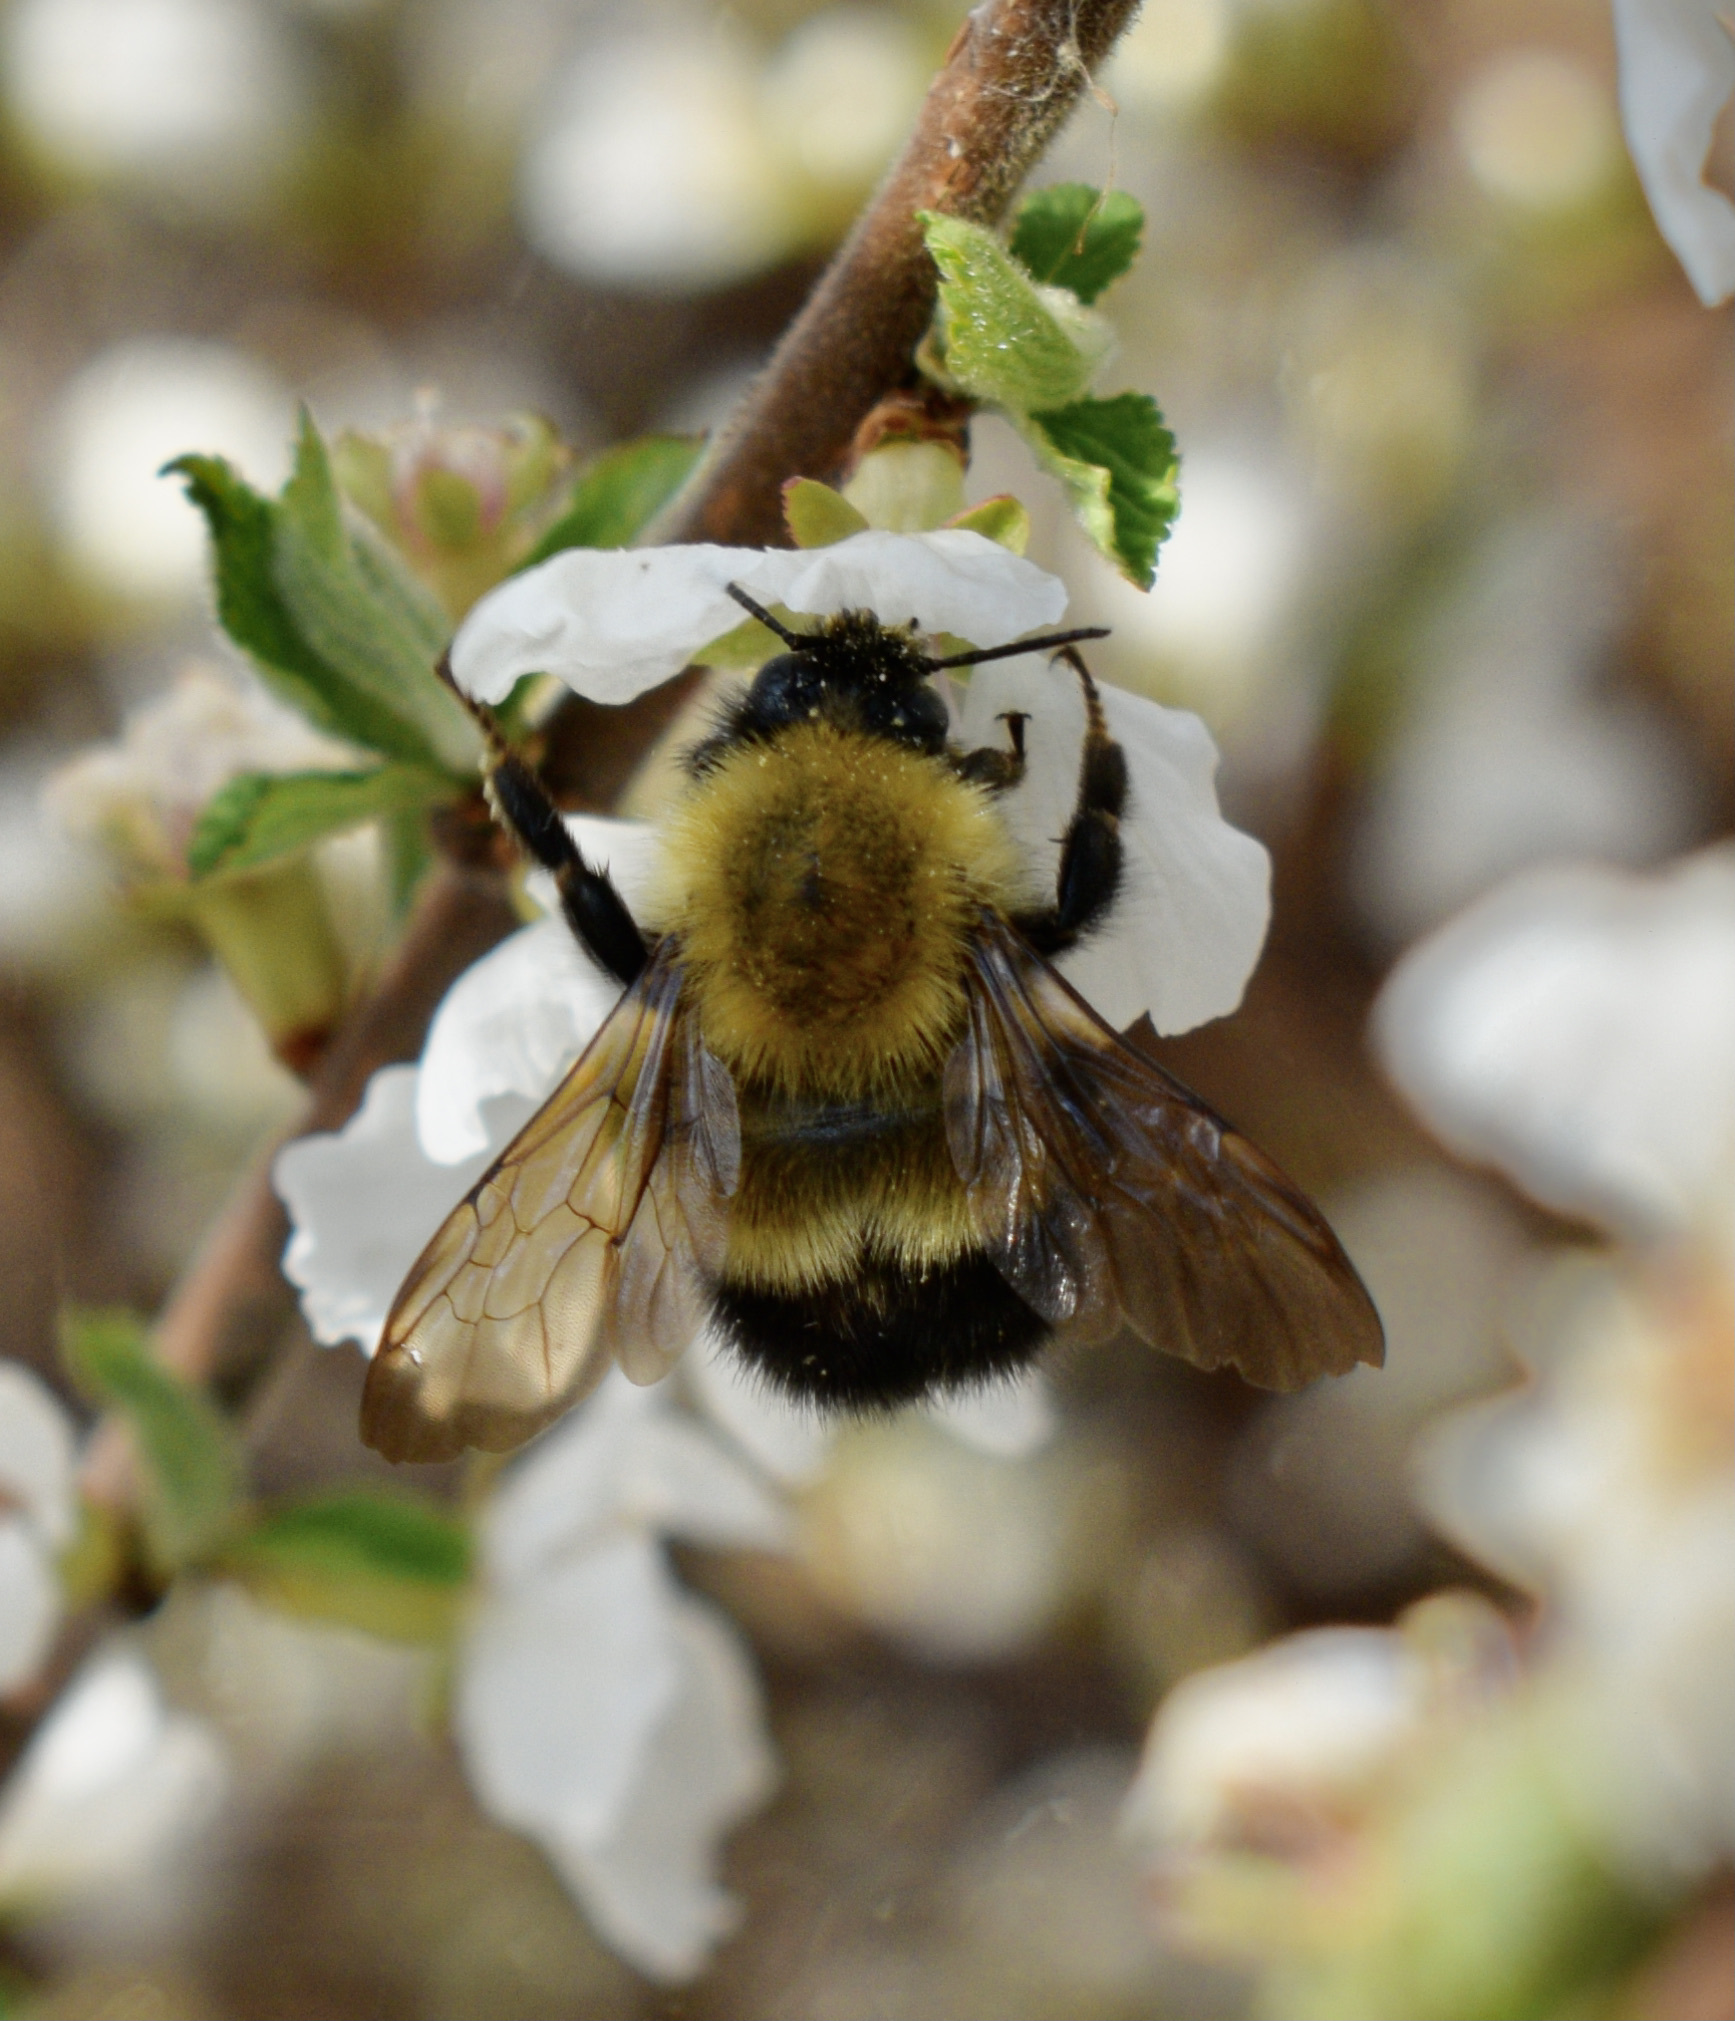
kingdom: Animalia
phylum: Arthropoda
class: Insecta
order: Hymenoptera
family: Apidae
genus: Bombus
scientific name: Bombus perplexus
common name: Confusing bumble bee
